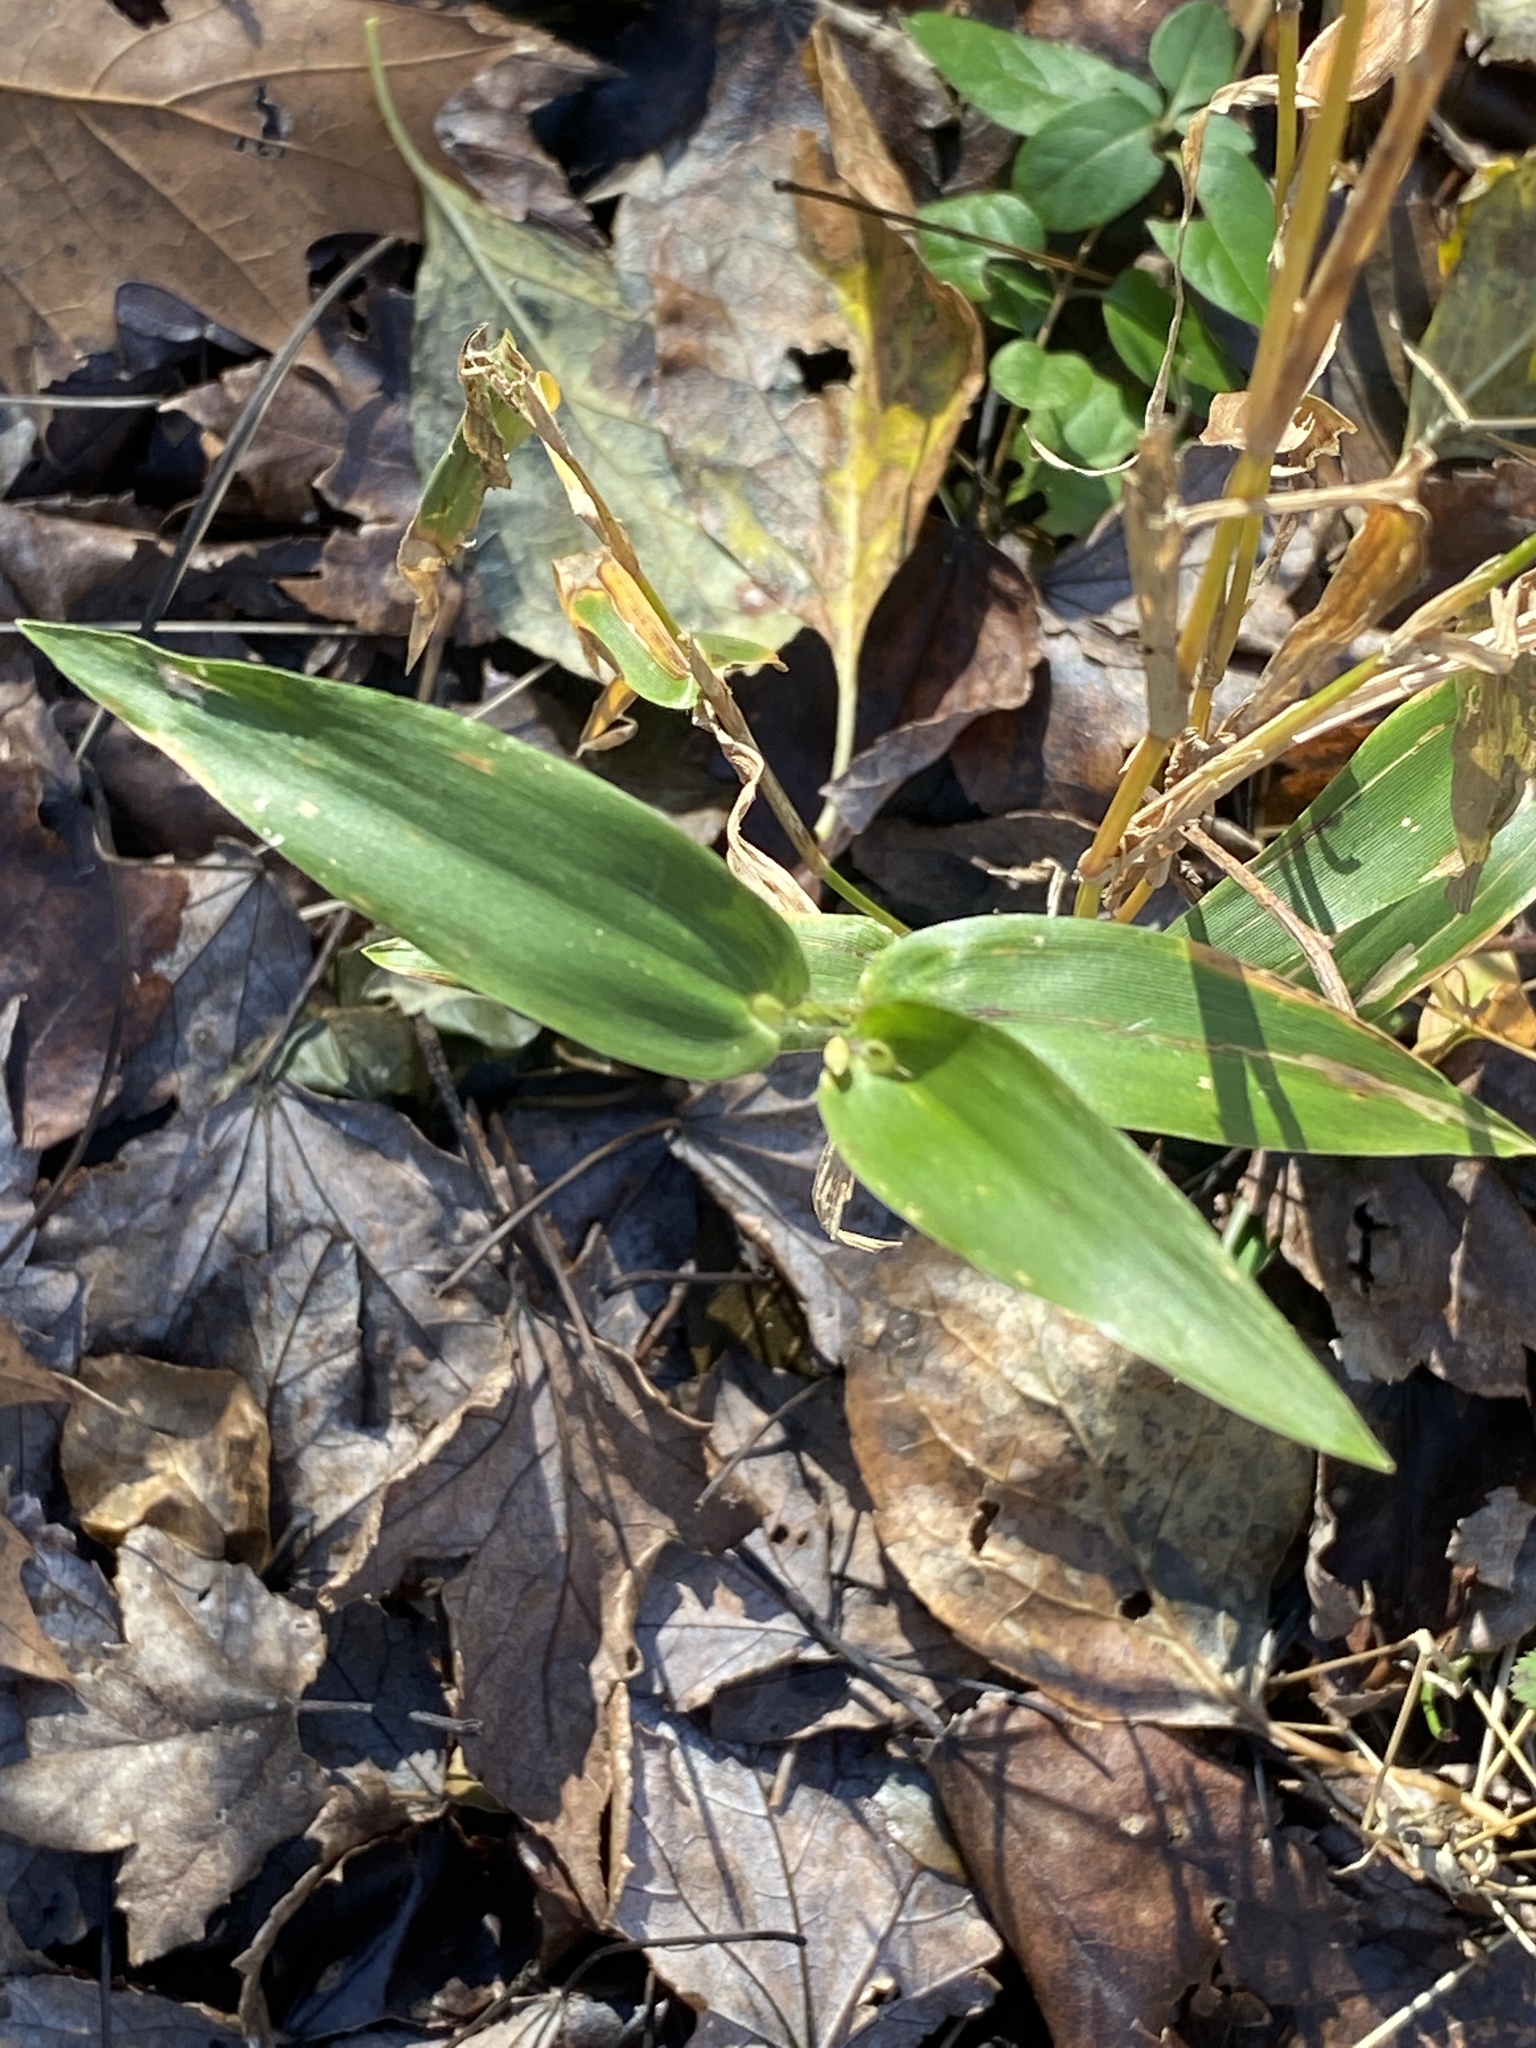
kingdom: Plantae
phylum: Tracheophyta
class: Liliopsida
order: Poales
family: Poaceae
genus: Dichanthelium
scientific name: Dichanthelium clandestinum
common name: Deer-tongue grass
